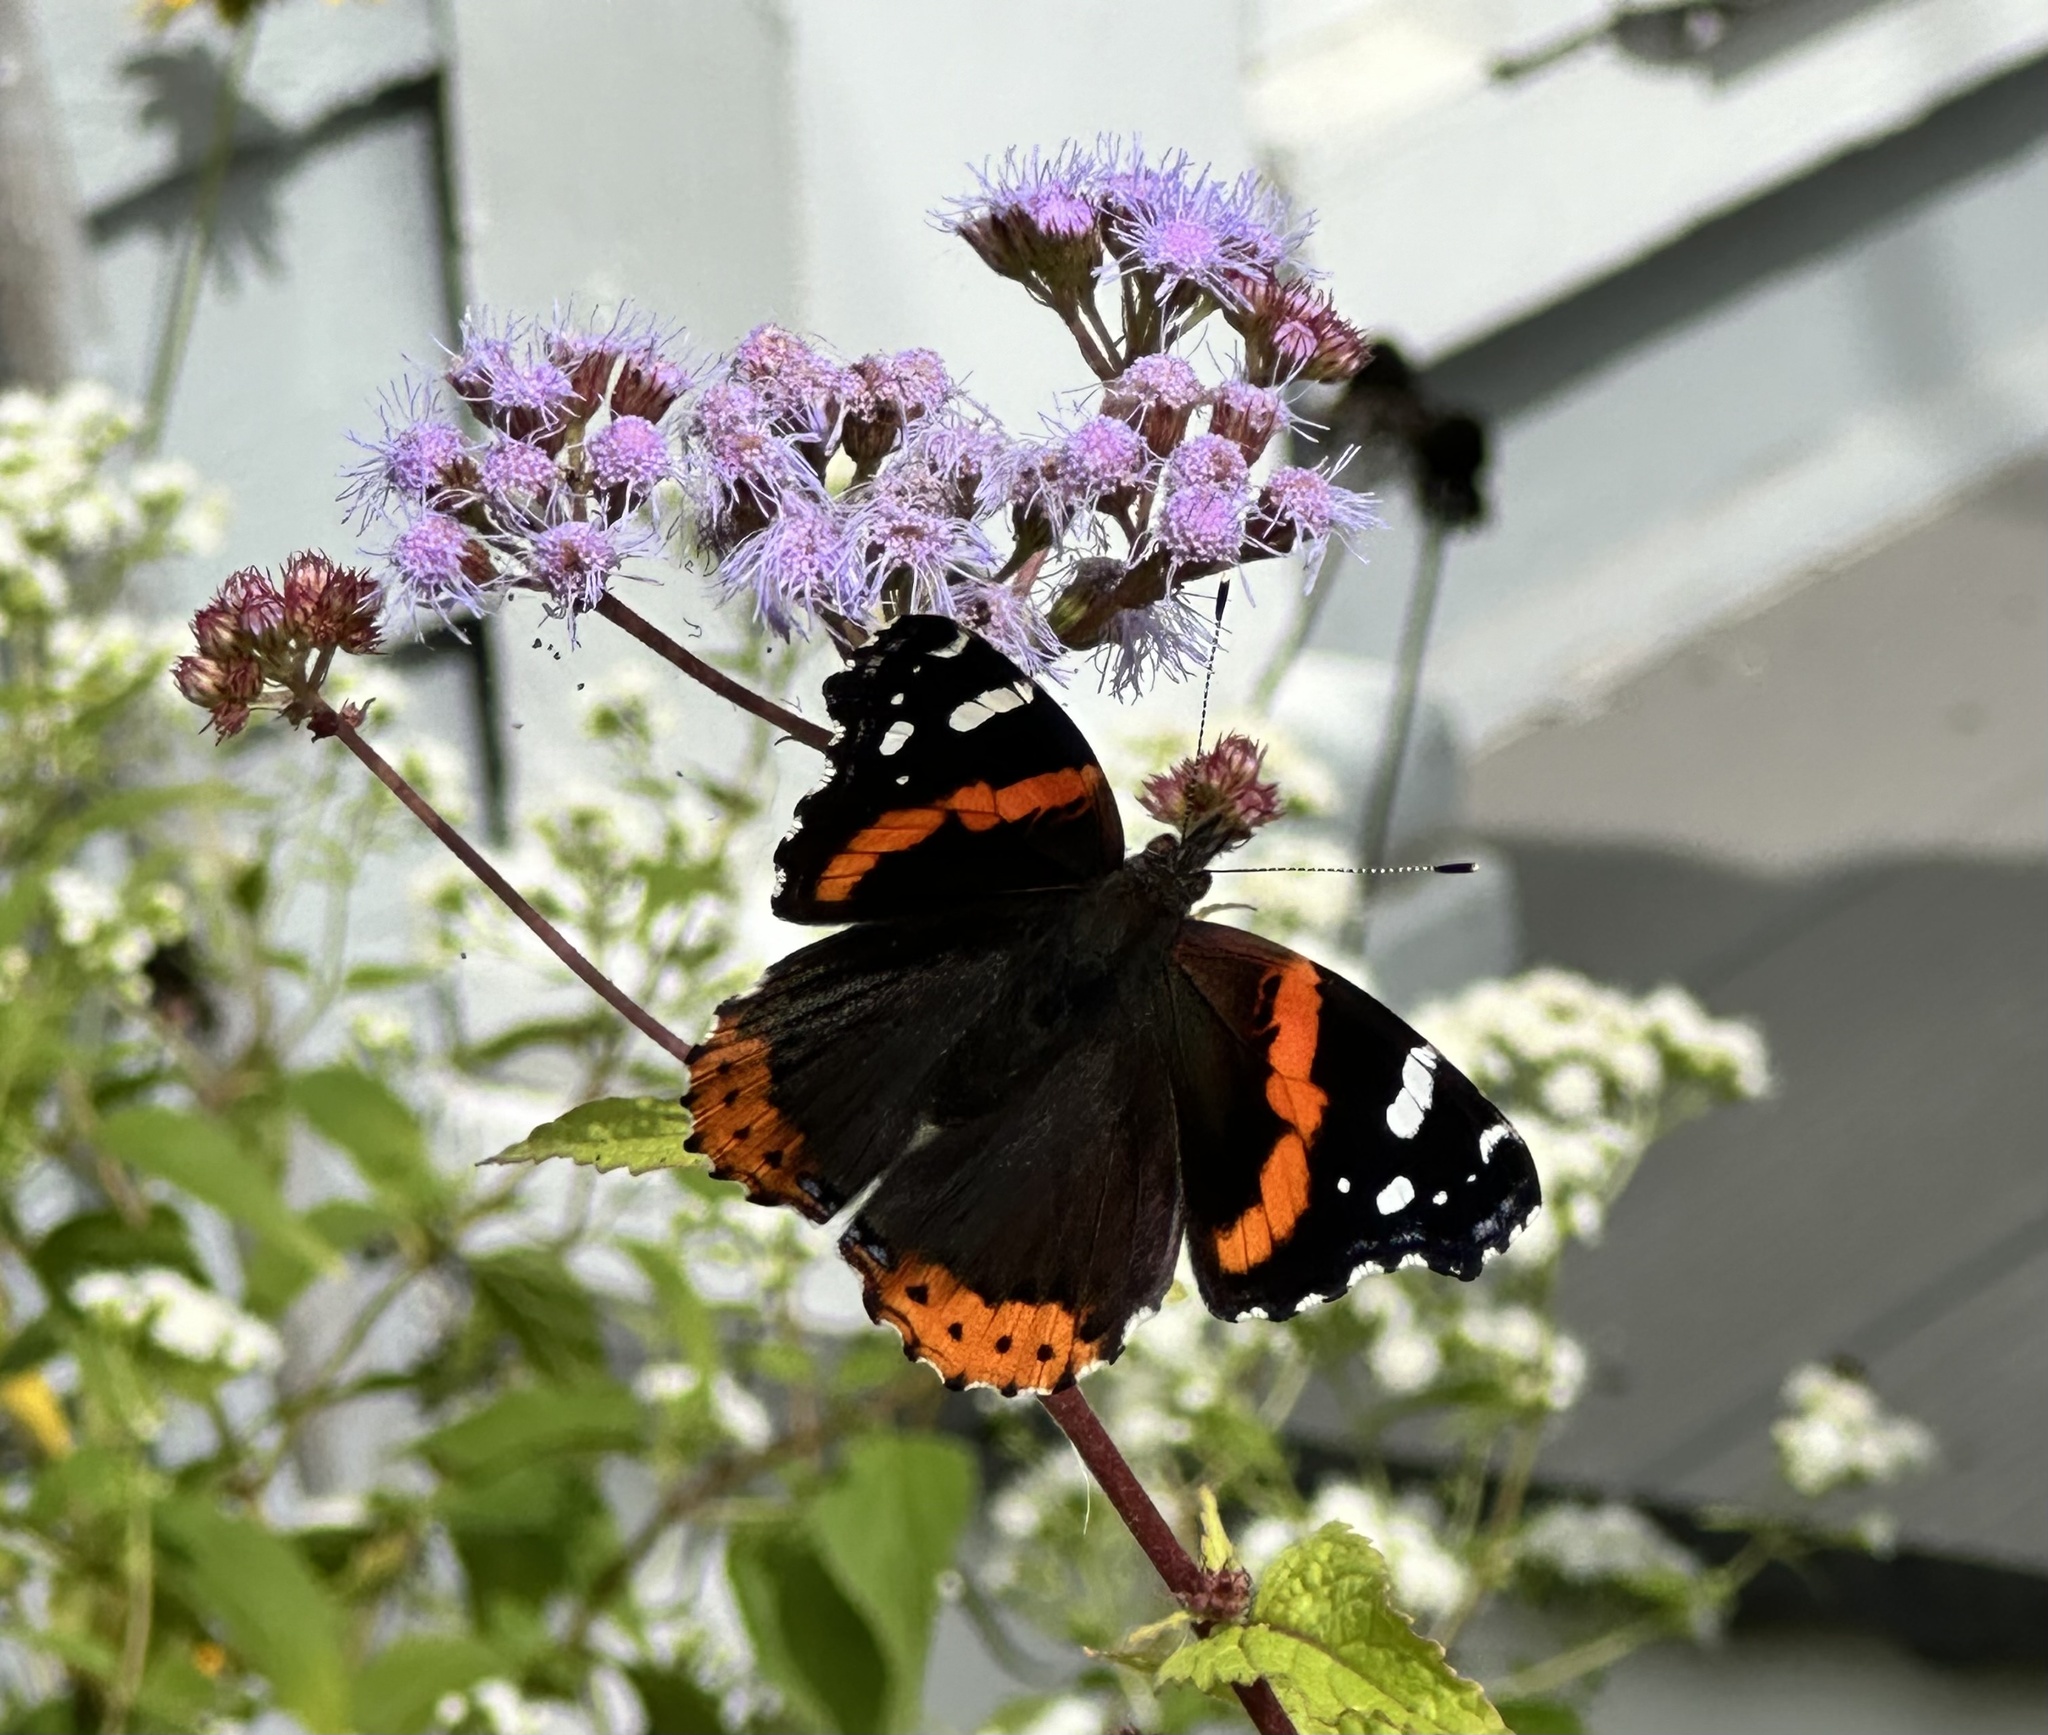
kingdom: Animalia
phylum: Arthropoda
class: Insecta
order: Lepidoptera
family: Nymphalidae
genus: Vanessa
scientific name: Vanessa atalanta
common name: Red admiral
